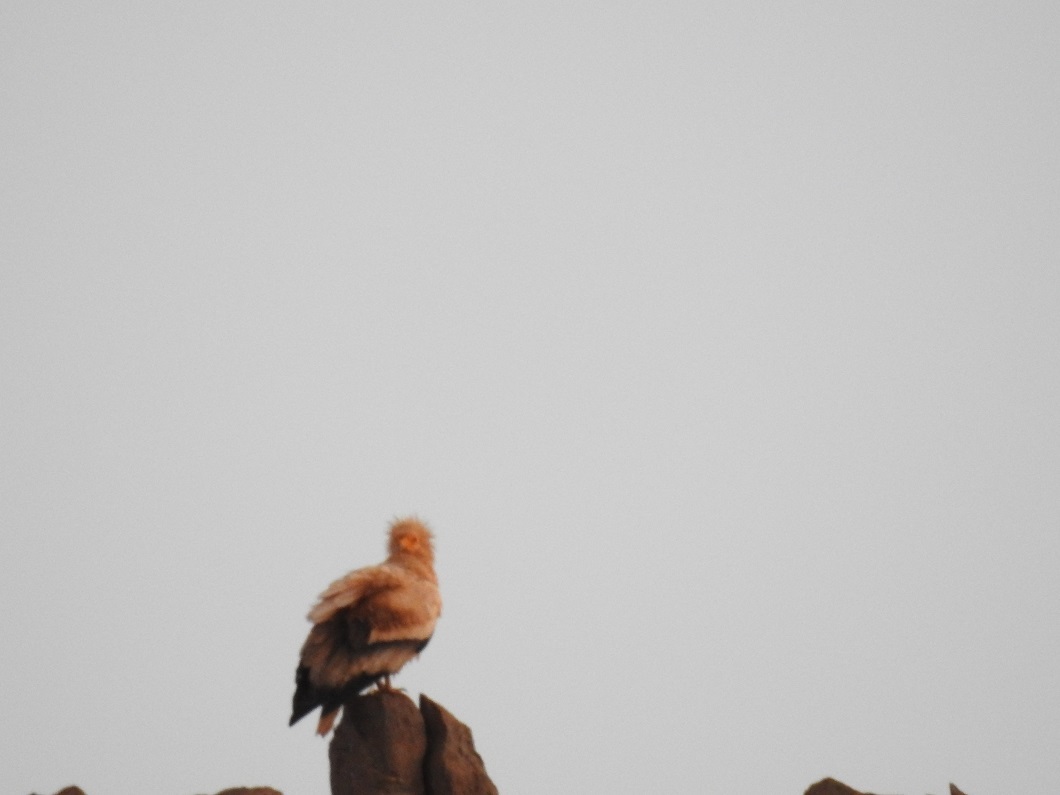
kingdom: Animalia
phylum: Chordata
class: Aves
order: Accipitriformes
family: Accipitridae
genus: Neophron
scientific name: Neophron percnopterus
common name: Egyptian vulture
